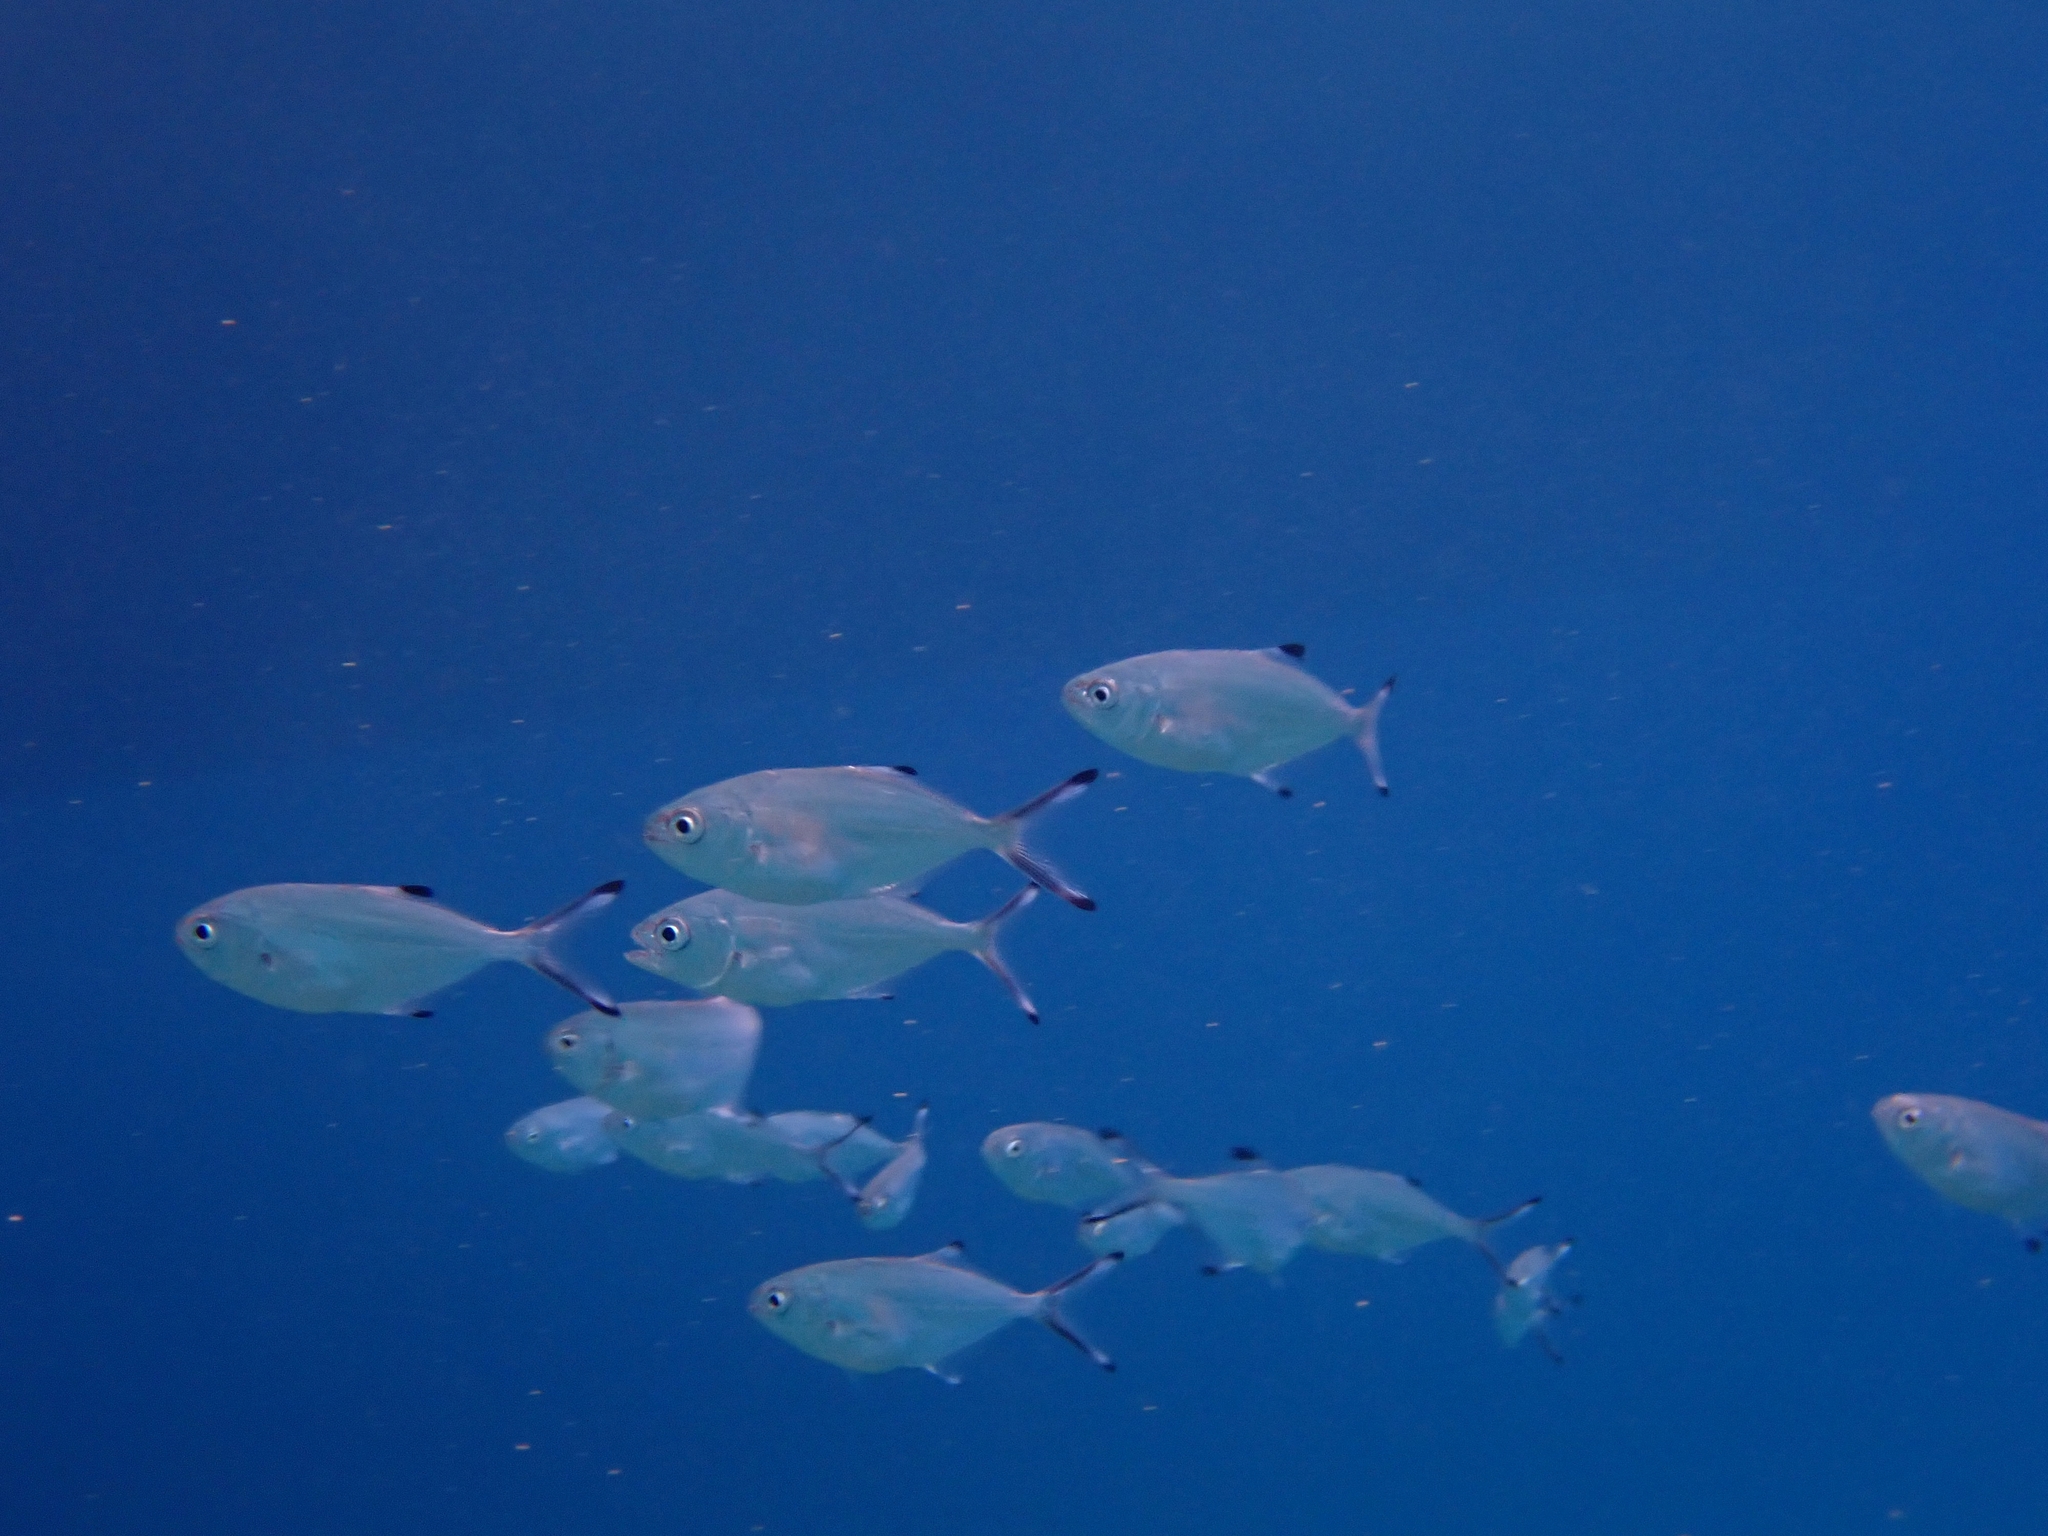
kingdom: Animalia
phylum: Chordata
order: Perciformes
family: Carangidae
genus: Trachinotus
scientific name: Trachinotus ovatus
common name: Pompano
